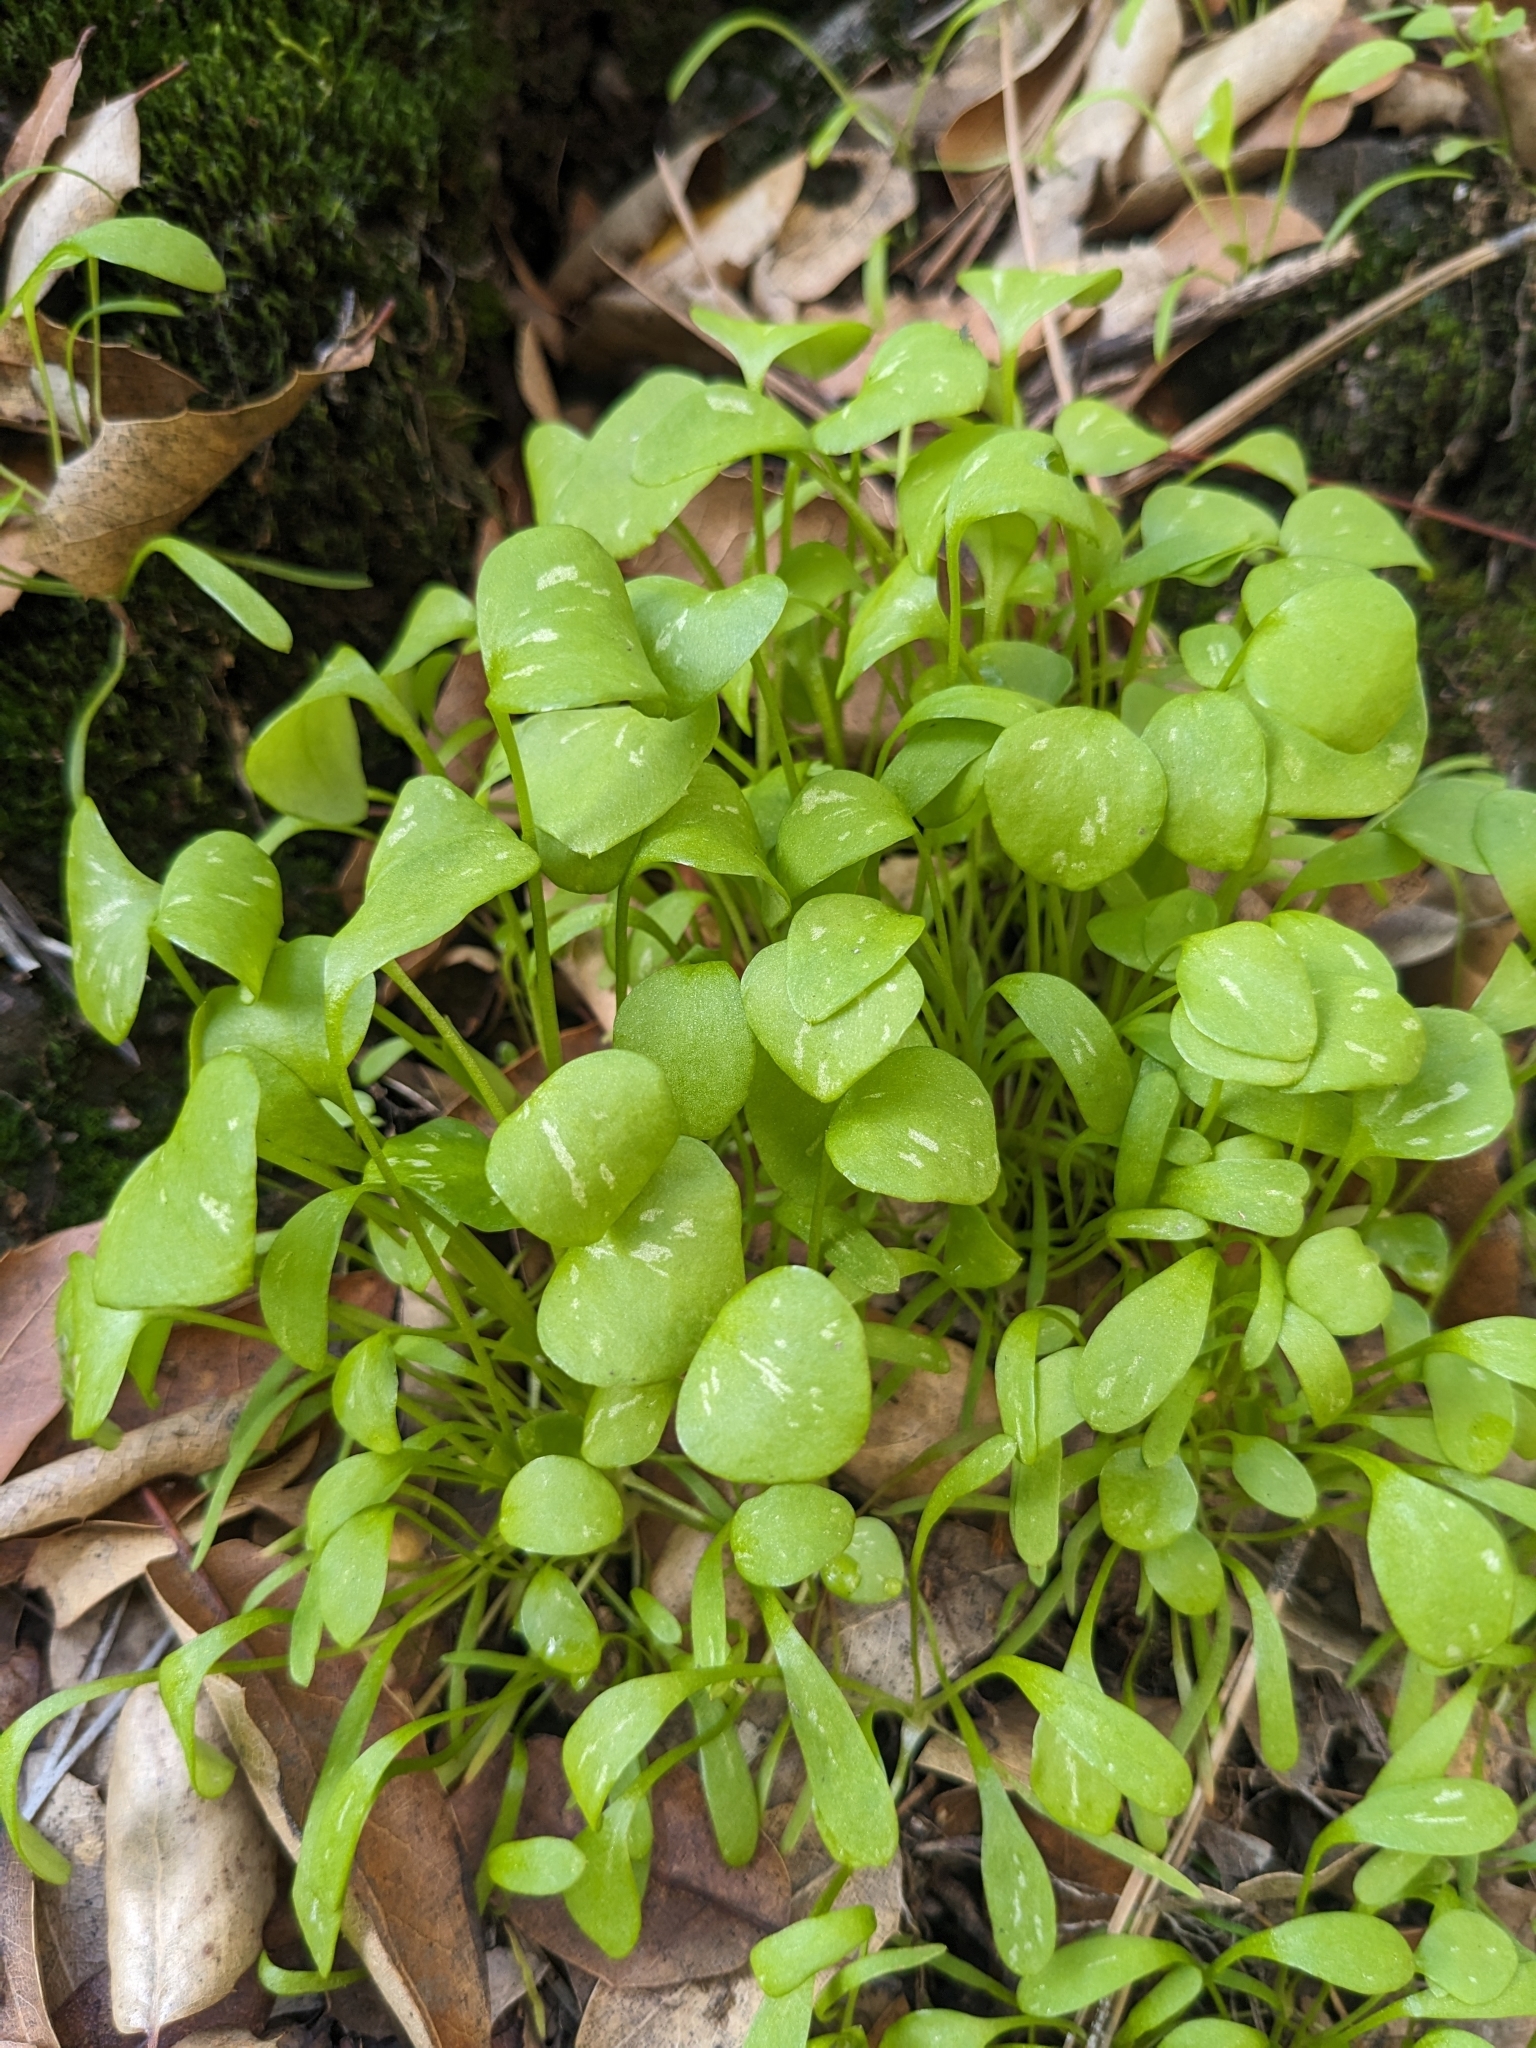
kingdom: Plantae
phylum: Tracheophyta
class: Magnoliopsida
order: Caryophyllales
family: Montiaceae
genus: Claytonia
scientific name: Claytonia perfoliata
